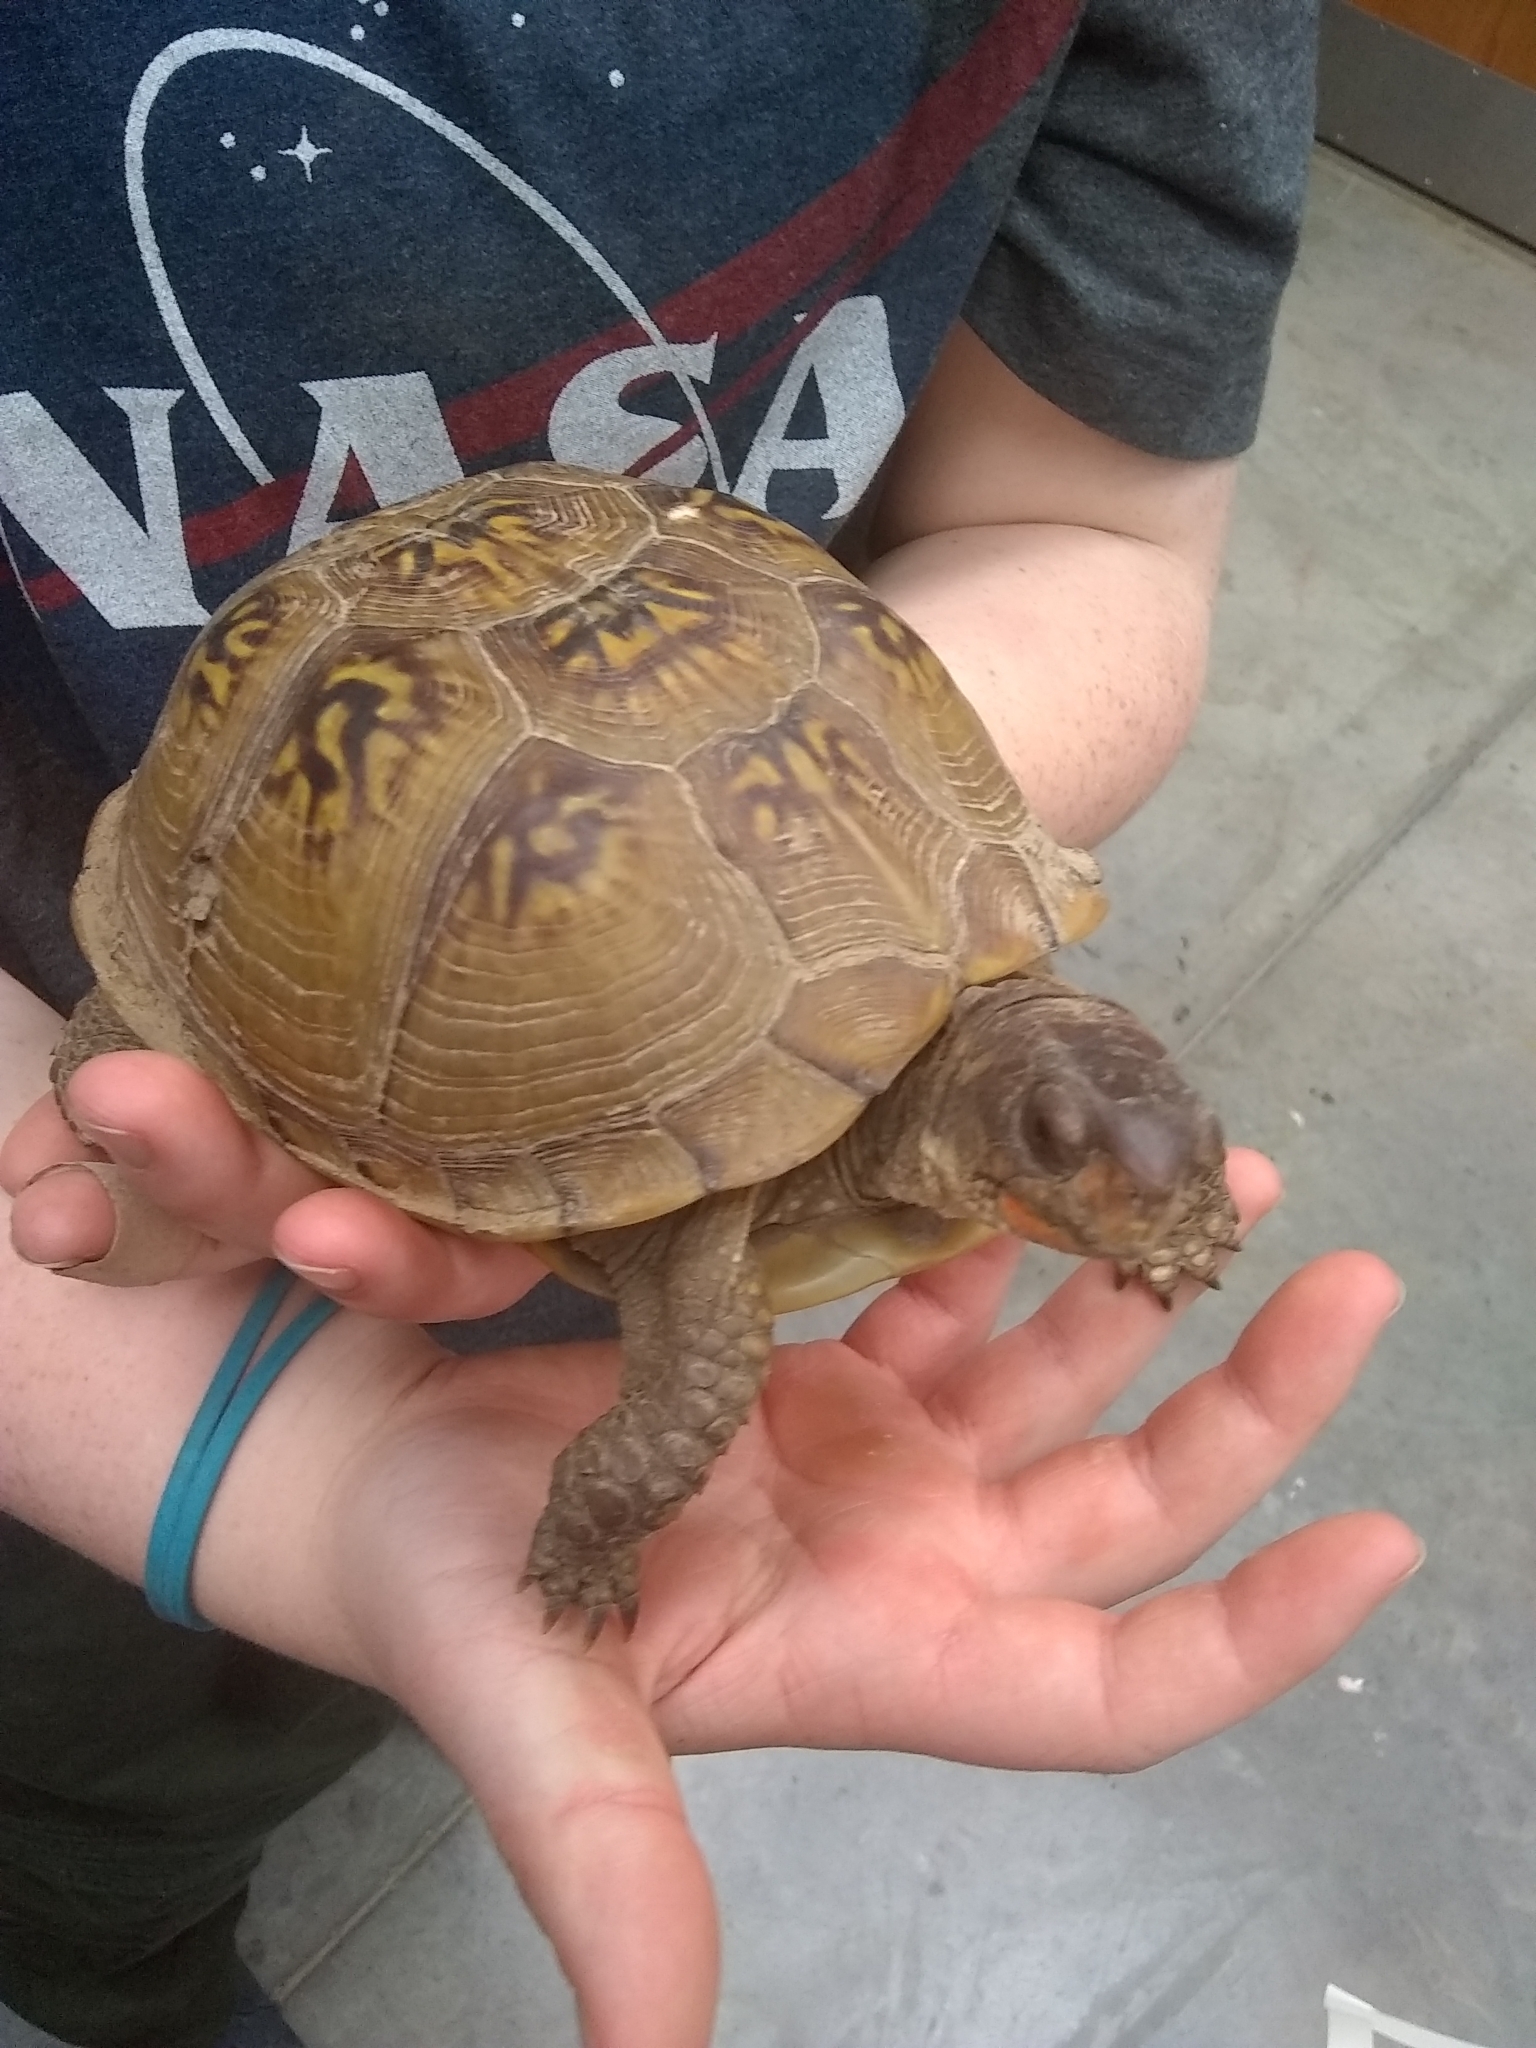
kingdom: Animalia
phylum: Chordata
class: Testudines
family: Emydidae
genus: Terrapene
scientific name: Terrapene carolina
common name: Common box turtle
